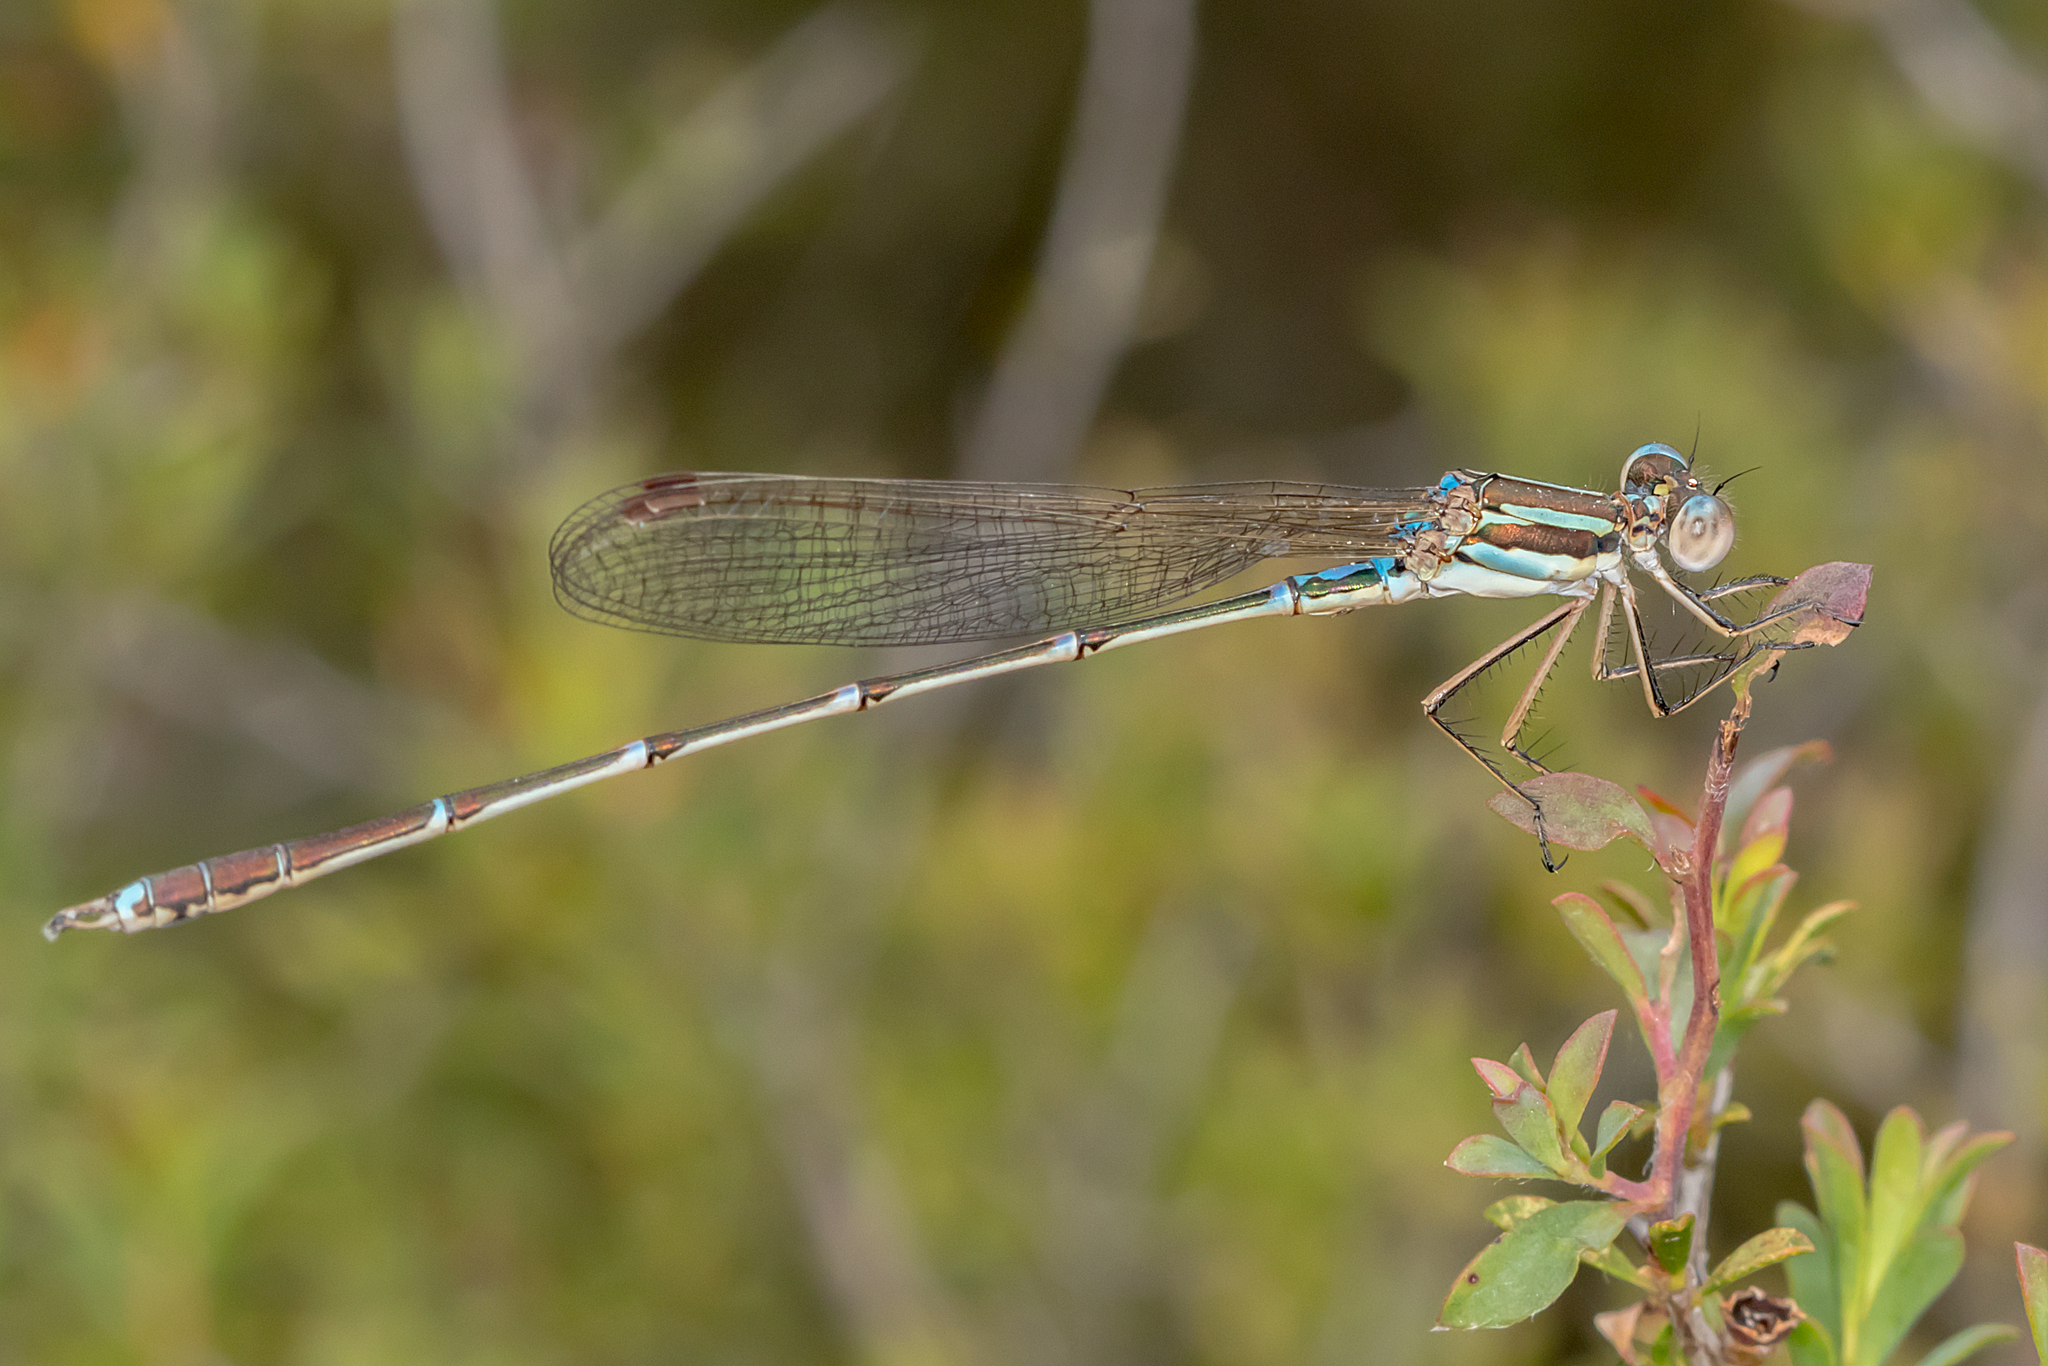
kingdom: Animalia
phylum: Arthropoda
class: Insecta
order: Odonata
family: Lestidae
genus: Austrolestes
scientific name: Austrolestes analis
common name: Slender ringtail
